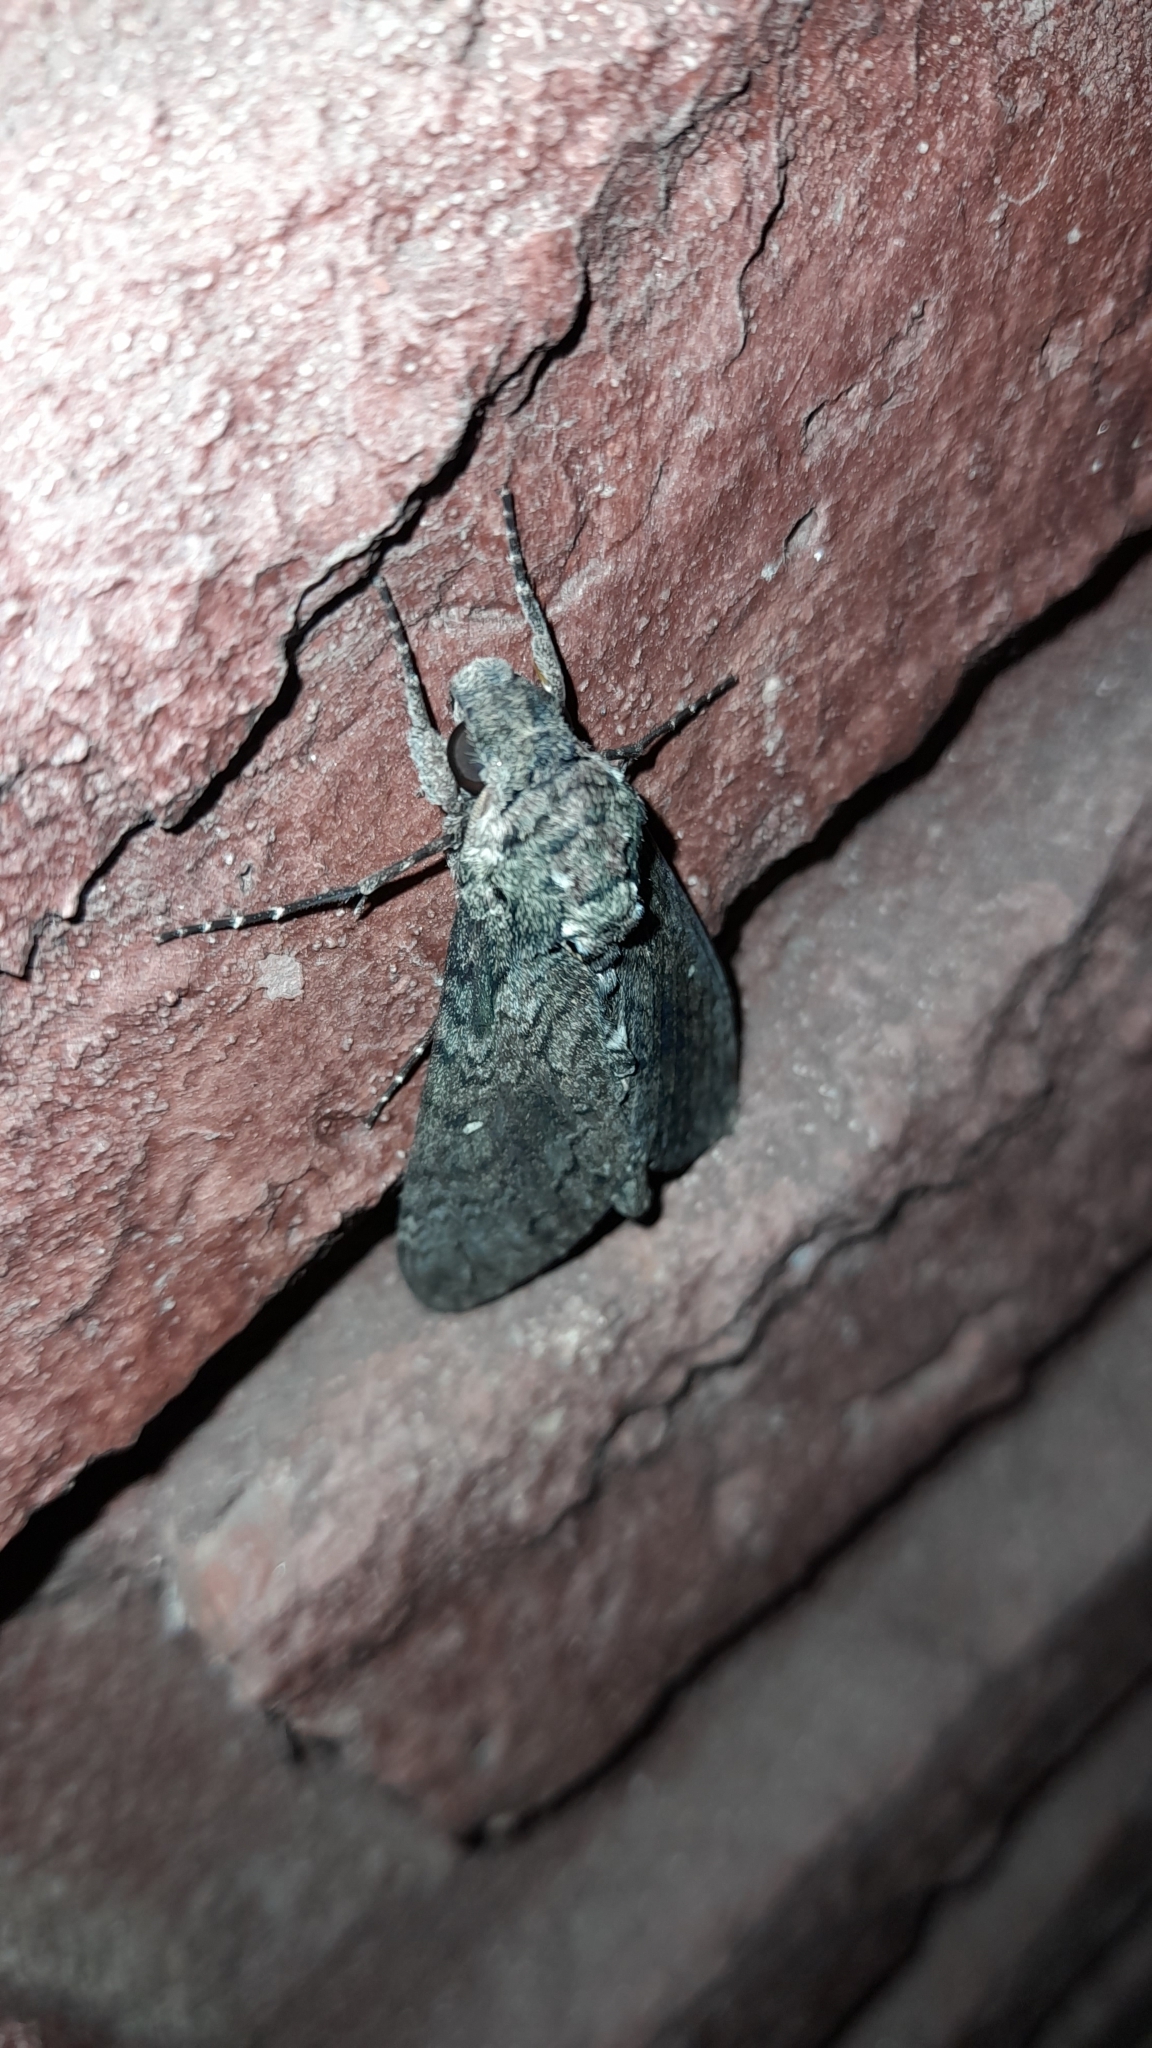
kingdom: Animalia
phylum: Arthropoda
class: Insecta
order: Lepidoptera
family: Sphingidae
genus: Manduca
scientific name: Manduca afflicta
